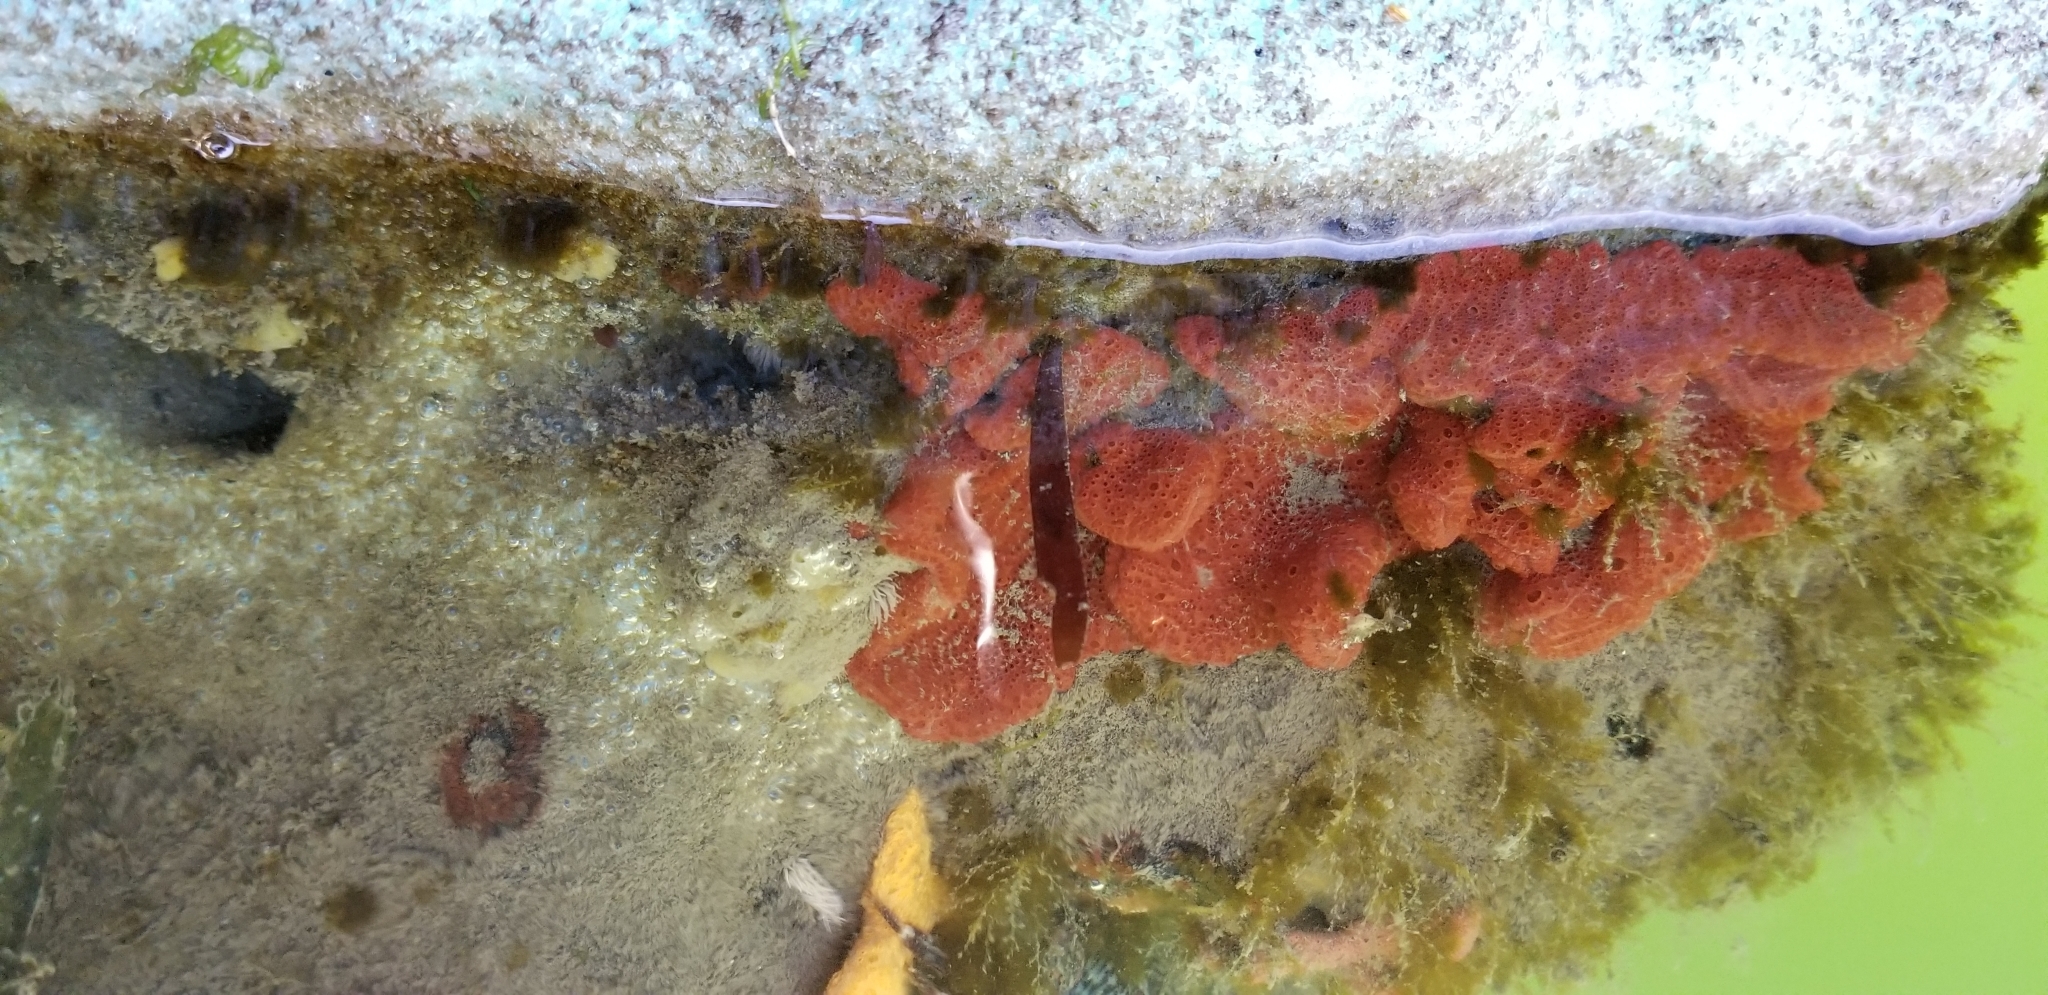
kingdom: Animalia
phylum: Chordata
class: Ascidiacea
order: Stolidobranchia
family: Styelidae
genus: Botrylloides
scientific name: Botrylloides violaceus
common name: Colonial sea squirt
